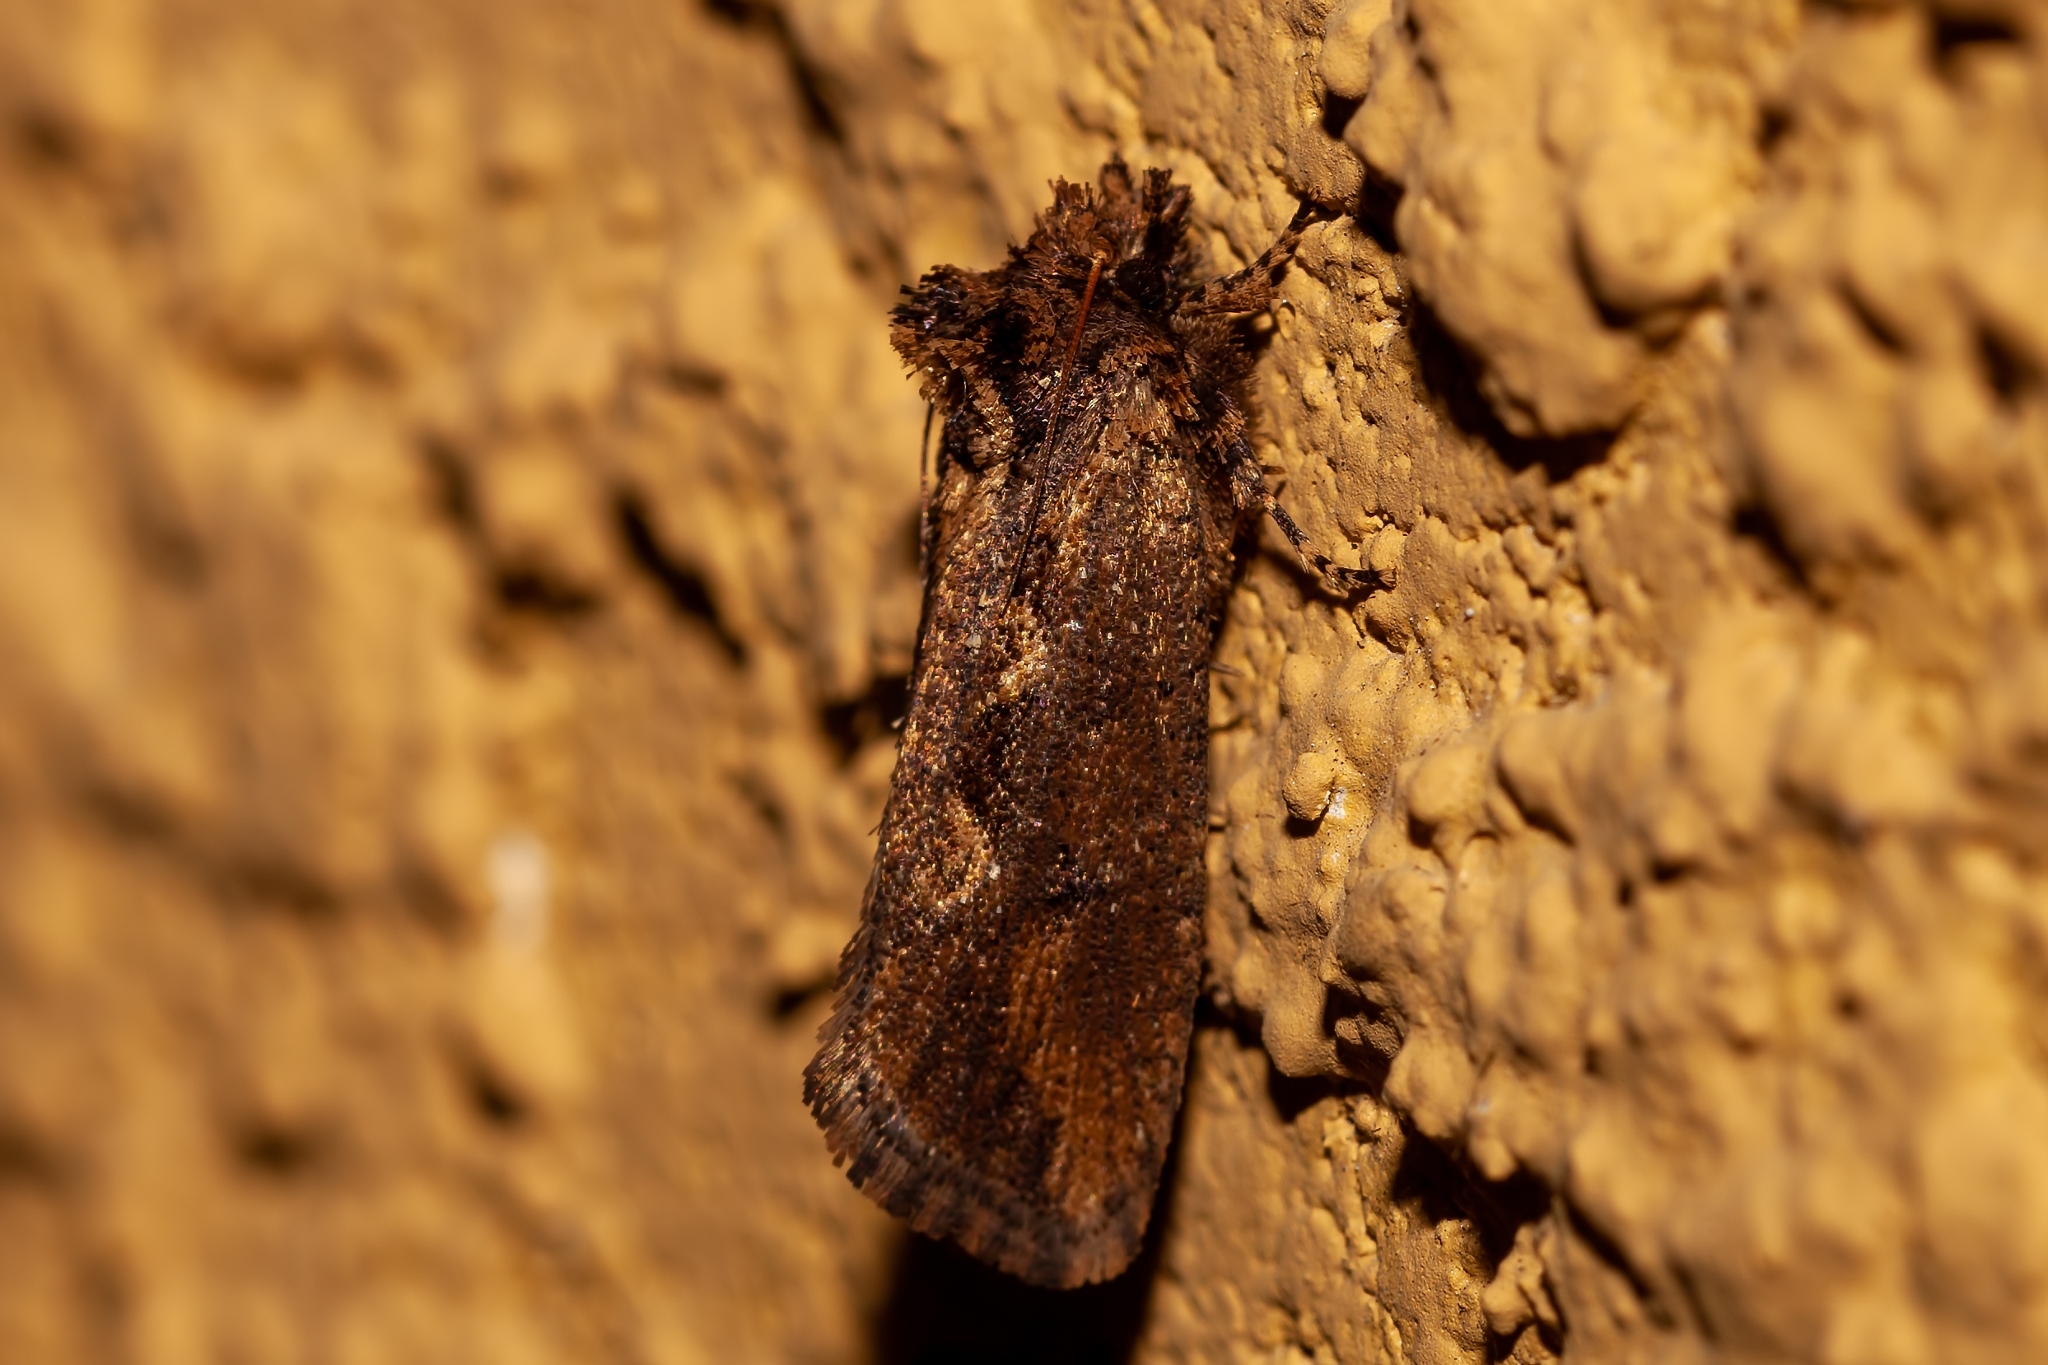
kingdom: Animalia
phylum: Arthropoda
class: Insecta
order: Lepidoptera
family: Tineidae
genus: Acrolophus
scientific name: Acrolophus walsinghami
